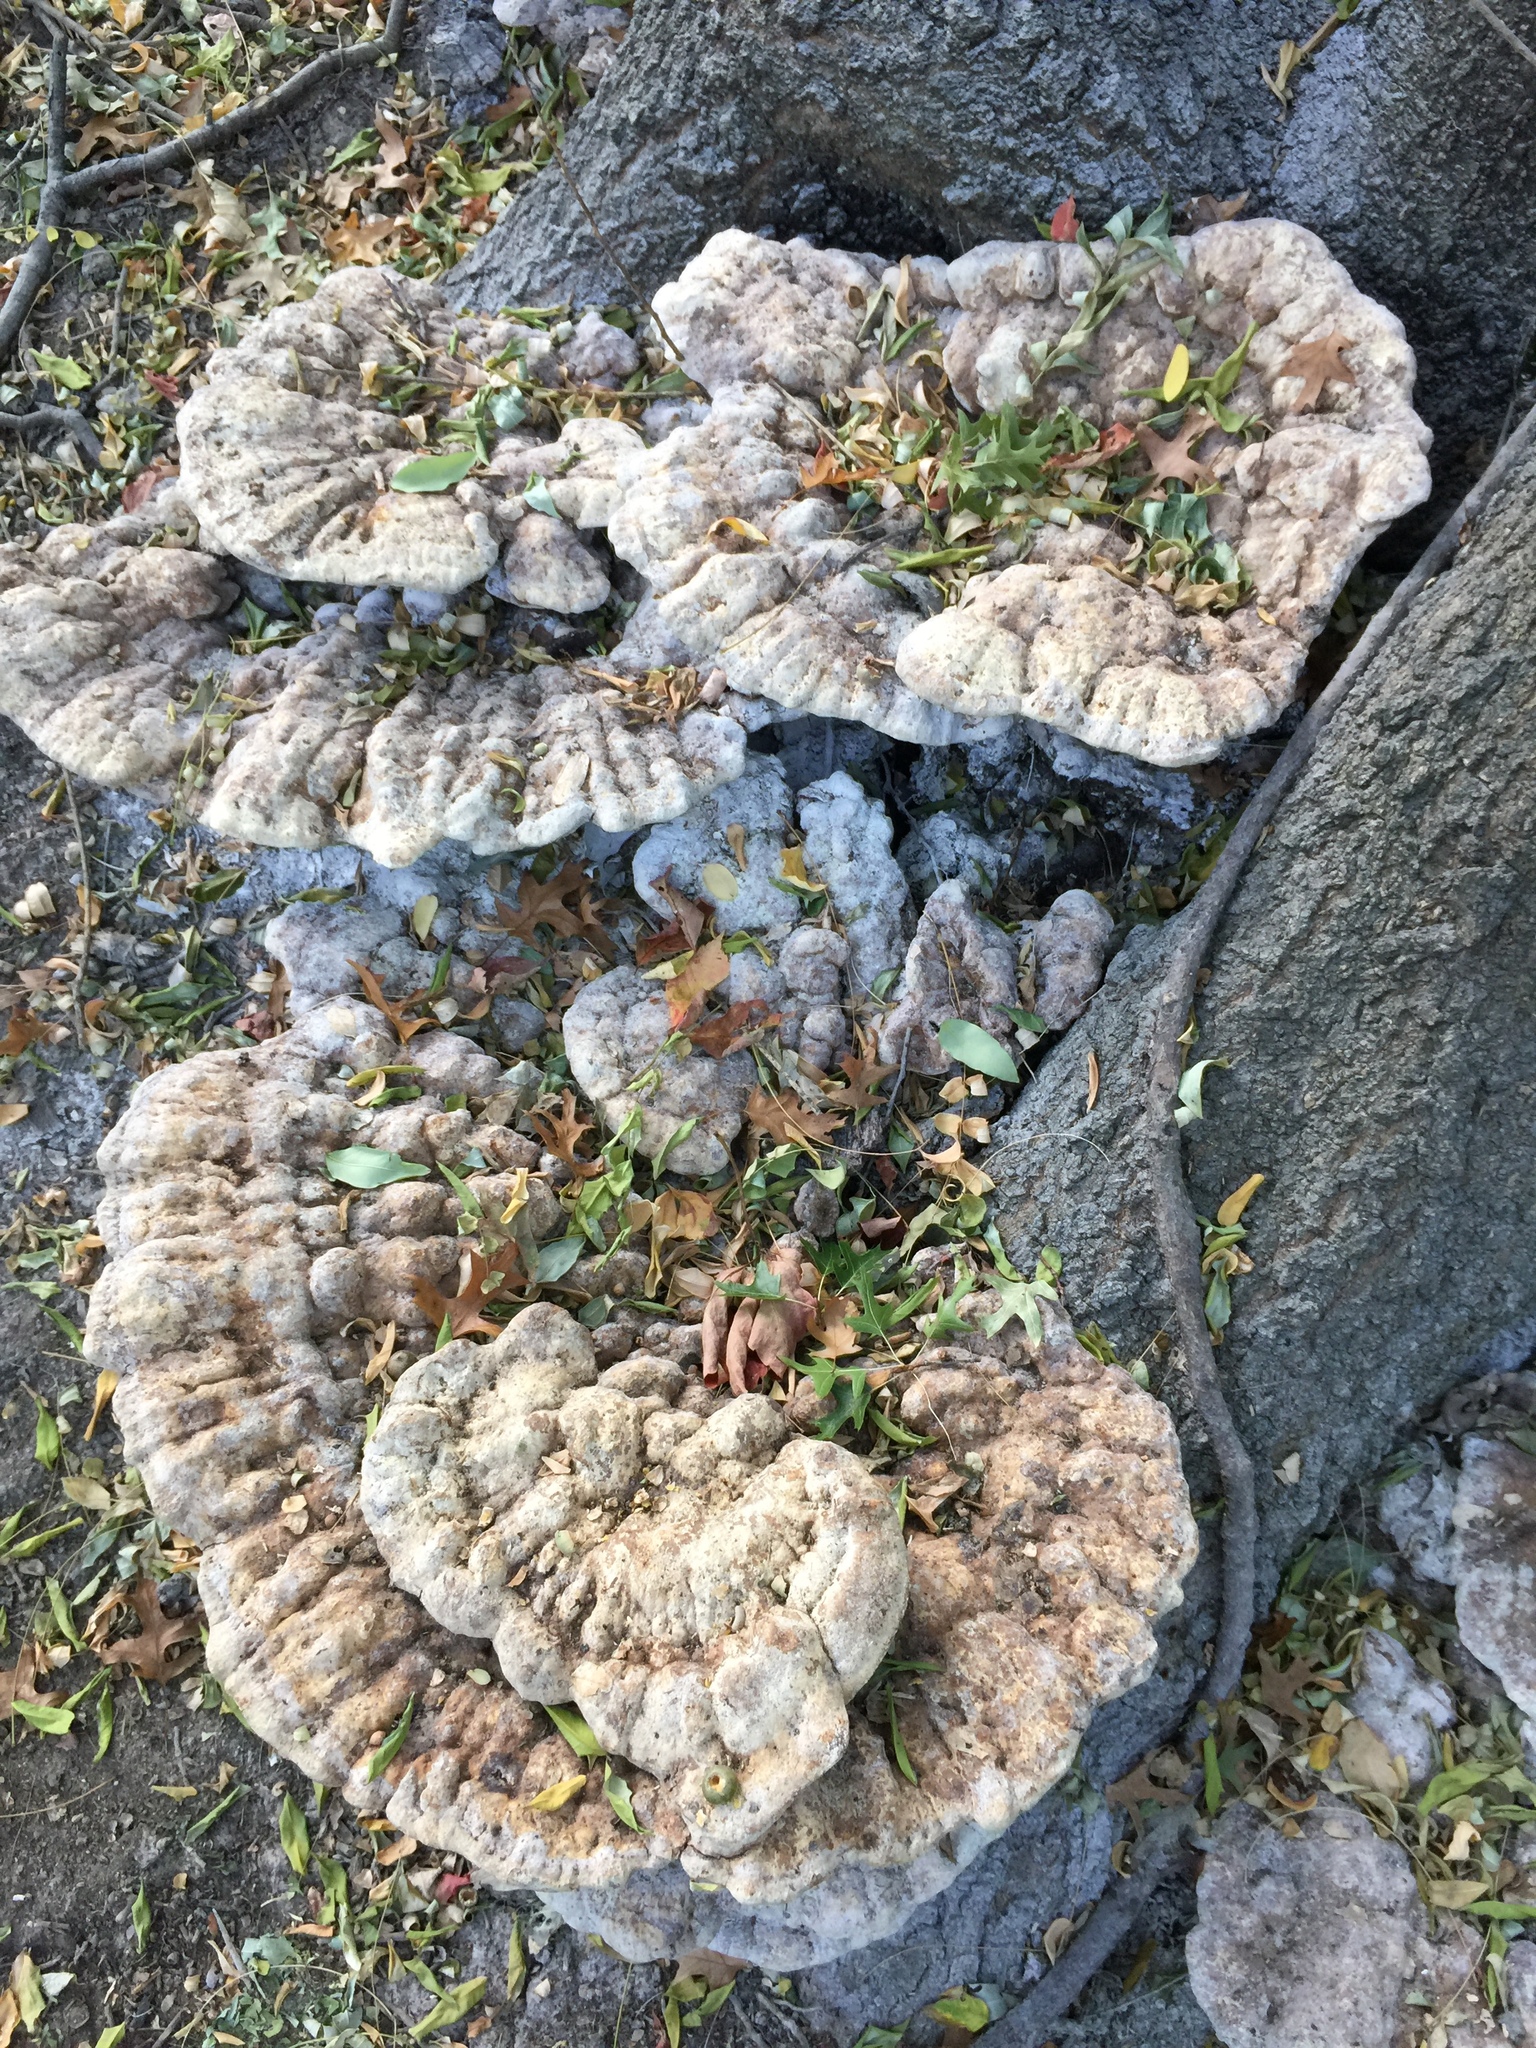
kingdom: Fungi
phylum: Basidiomycota
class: Agaricomycetes
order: Hymenochaetales
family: Hymenochaetaceae
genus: Pseudoinonotus
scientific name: Pseudoinonotus dryadeus
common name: Oak bracket
